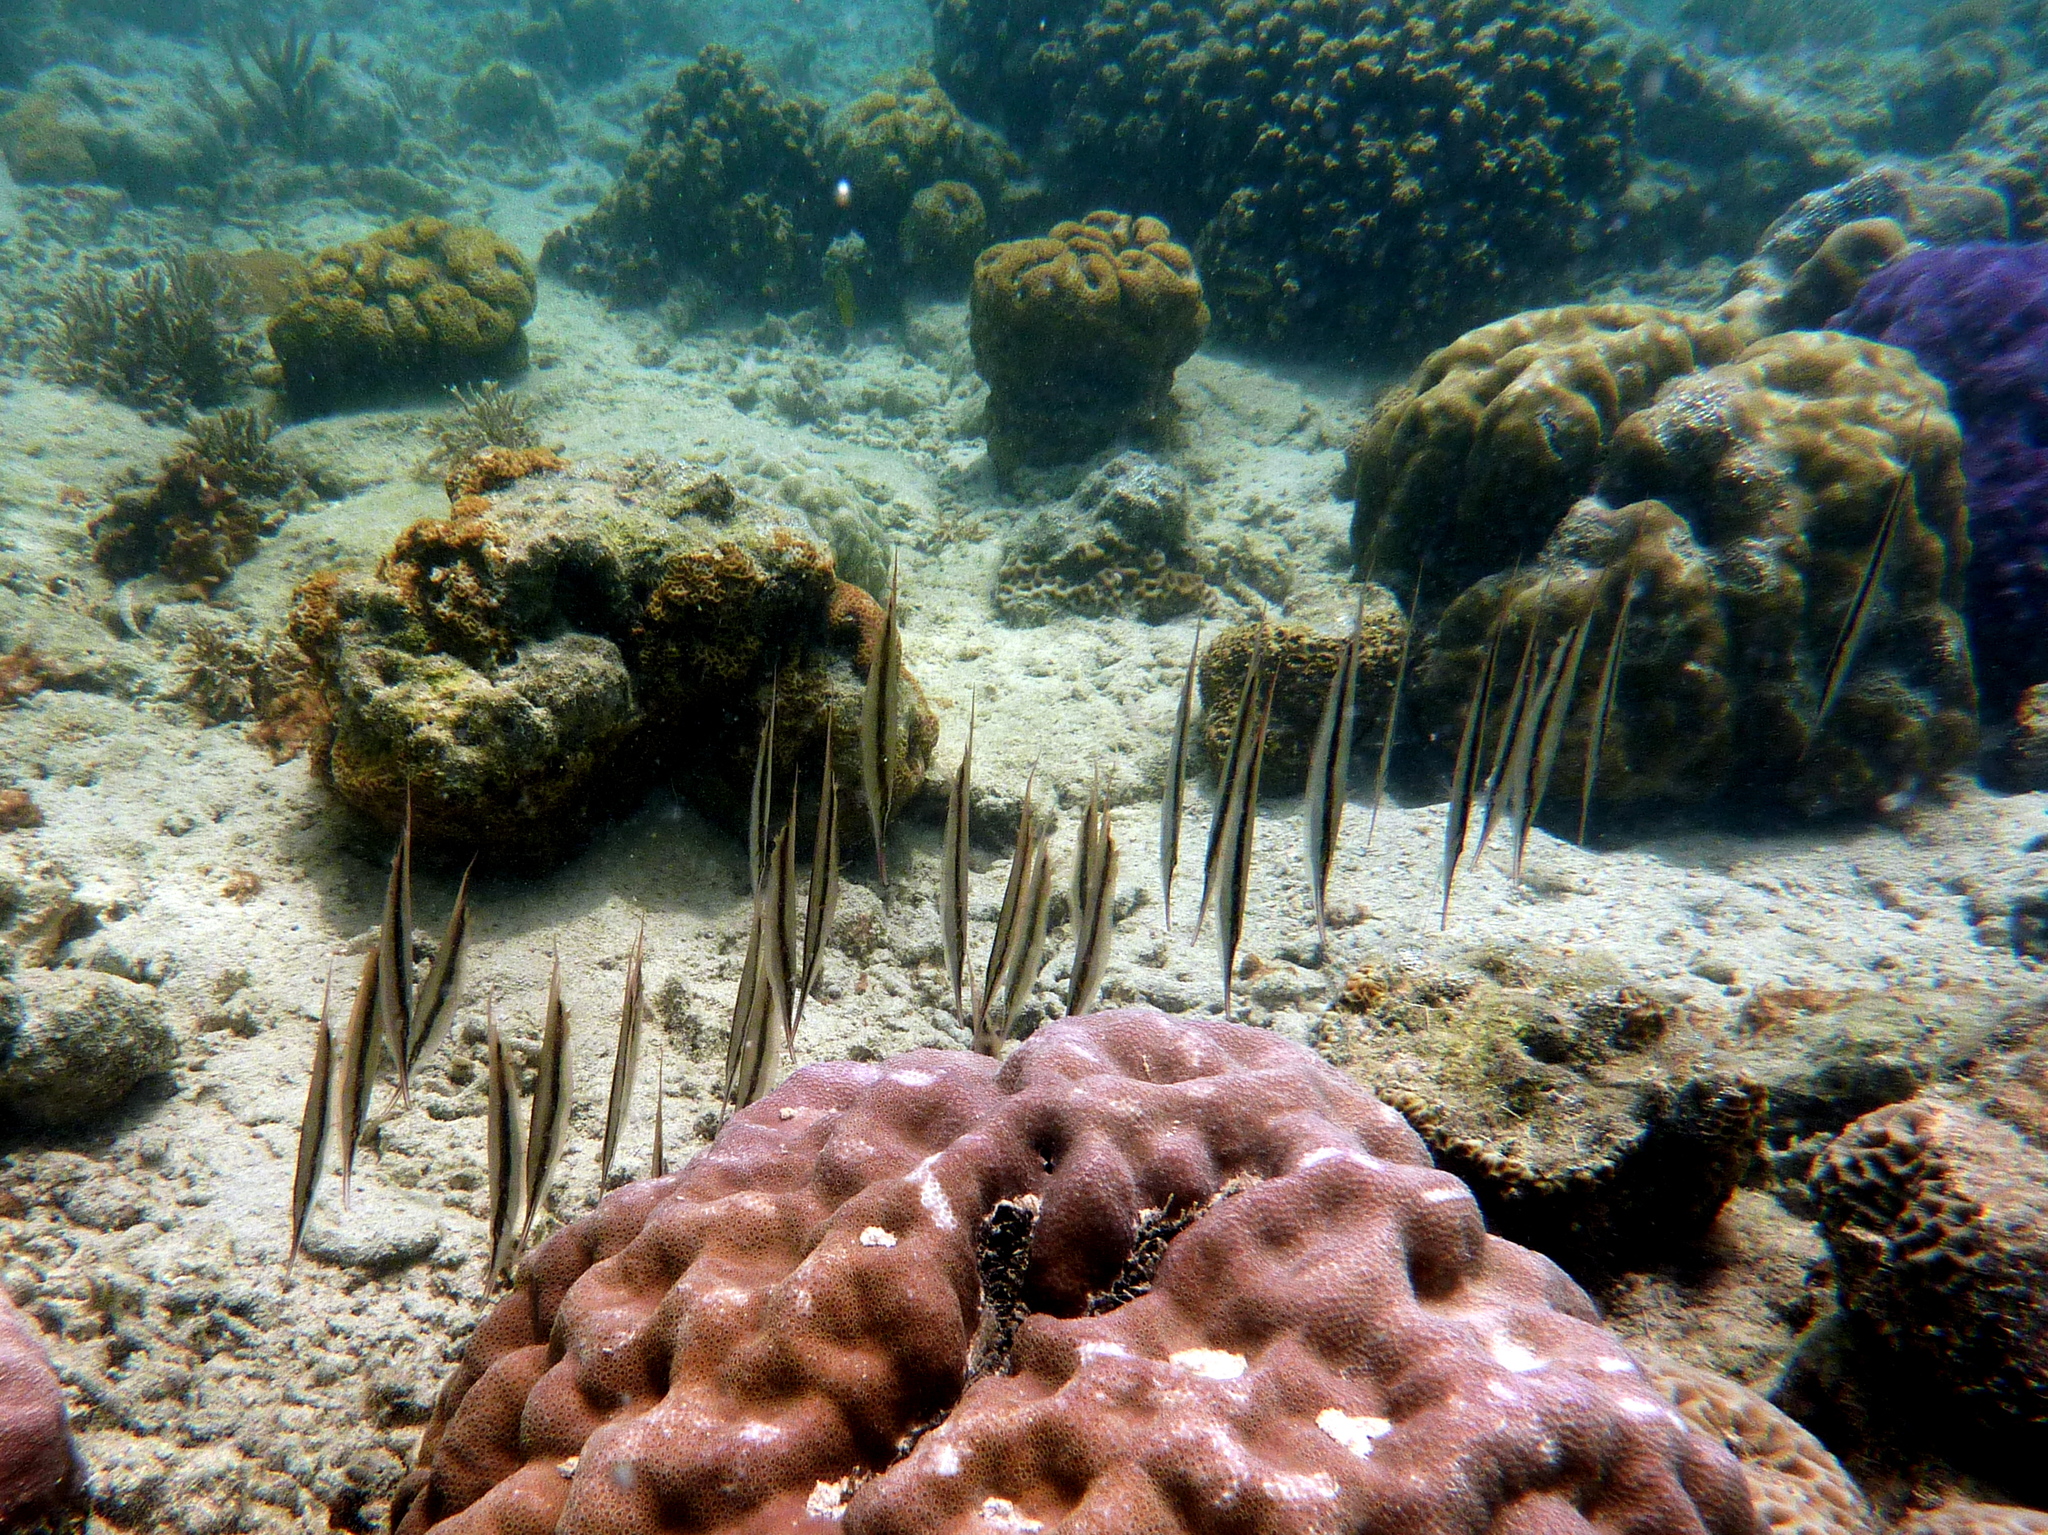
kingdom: Animalia
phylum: Chordata
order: Syngnathiformes
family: Centriscidae
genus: Aeoliscus
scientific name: Aeoliscus strigatus
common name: Canif
